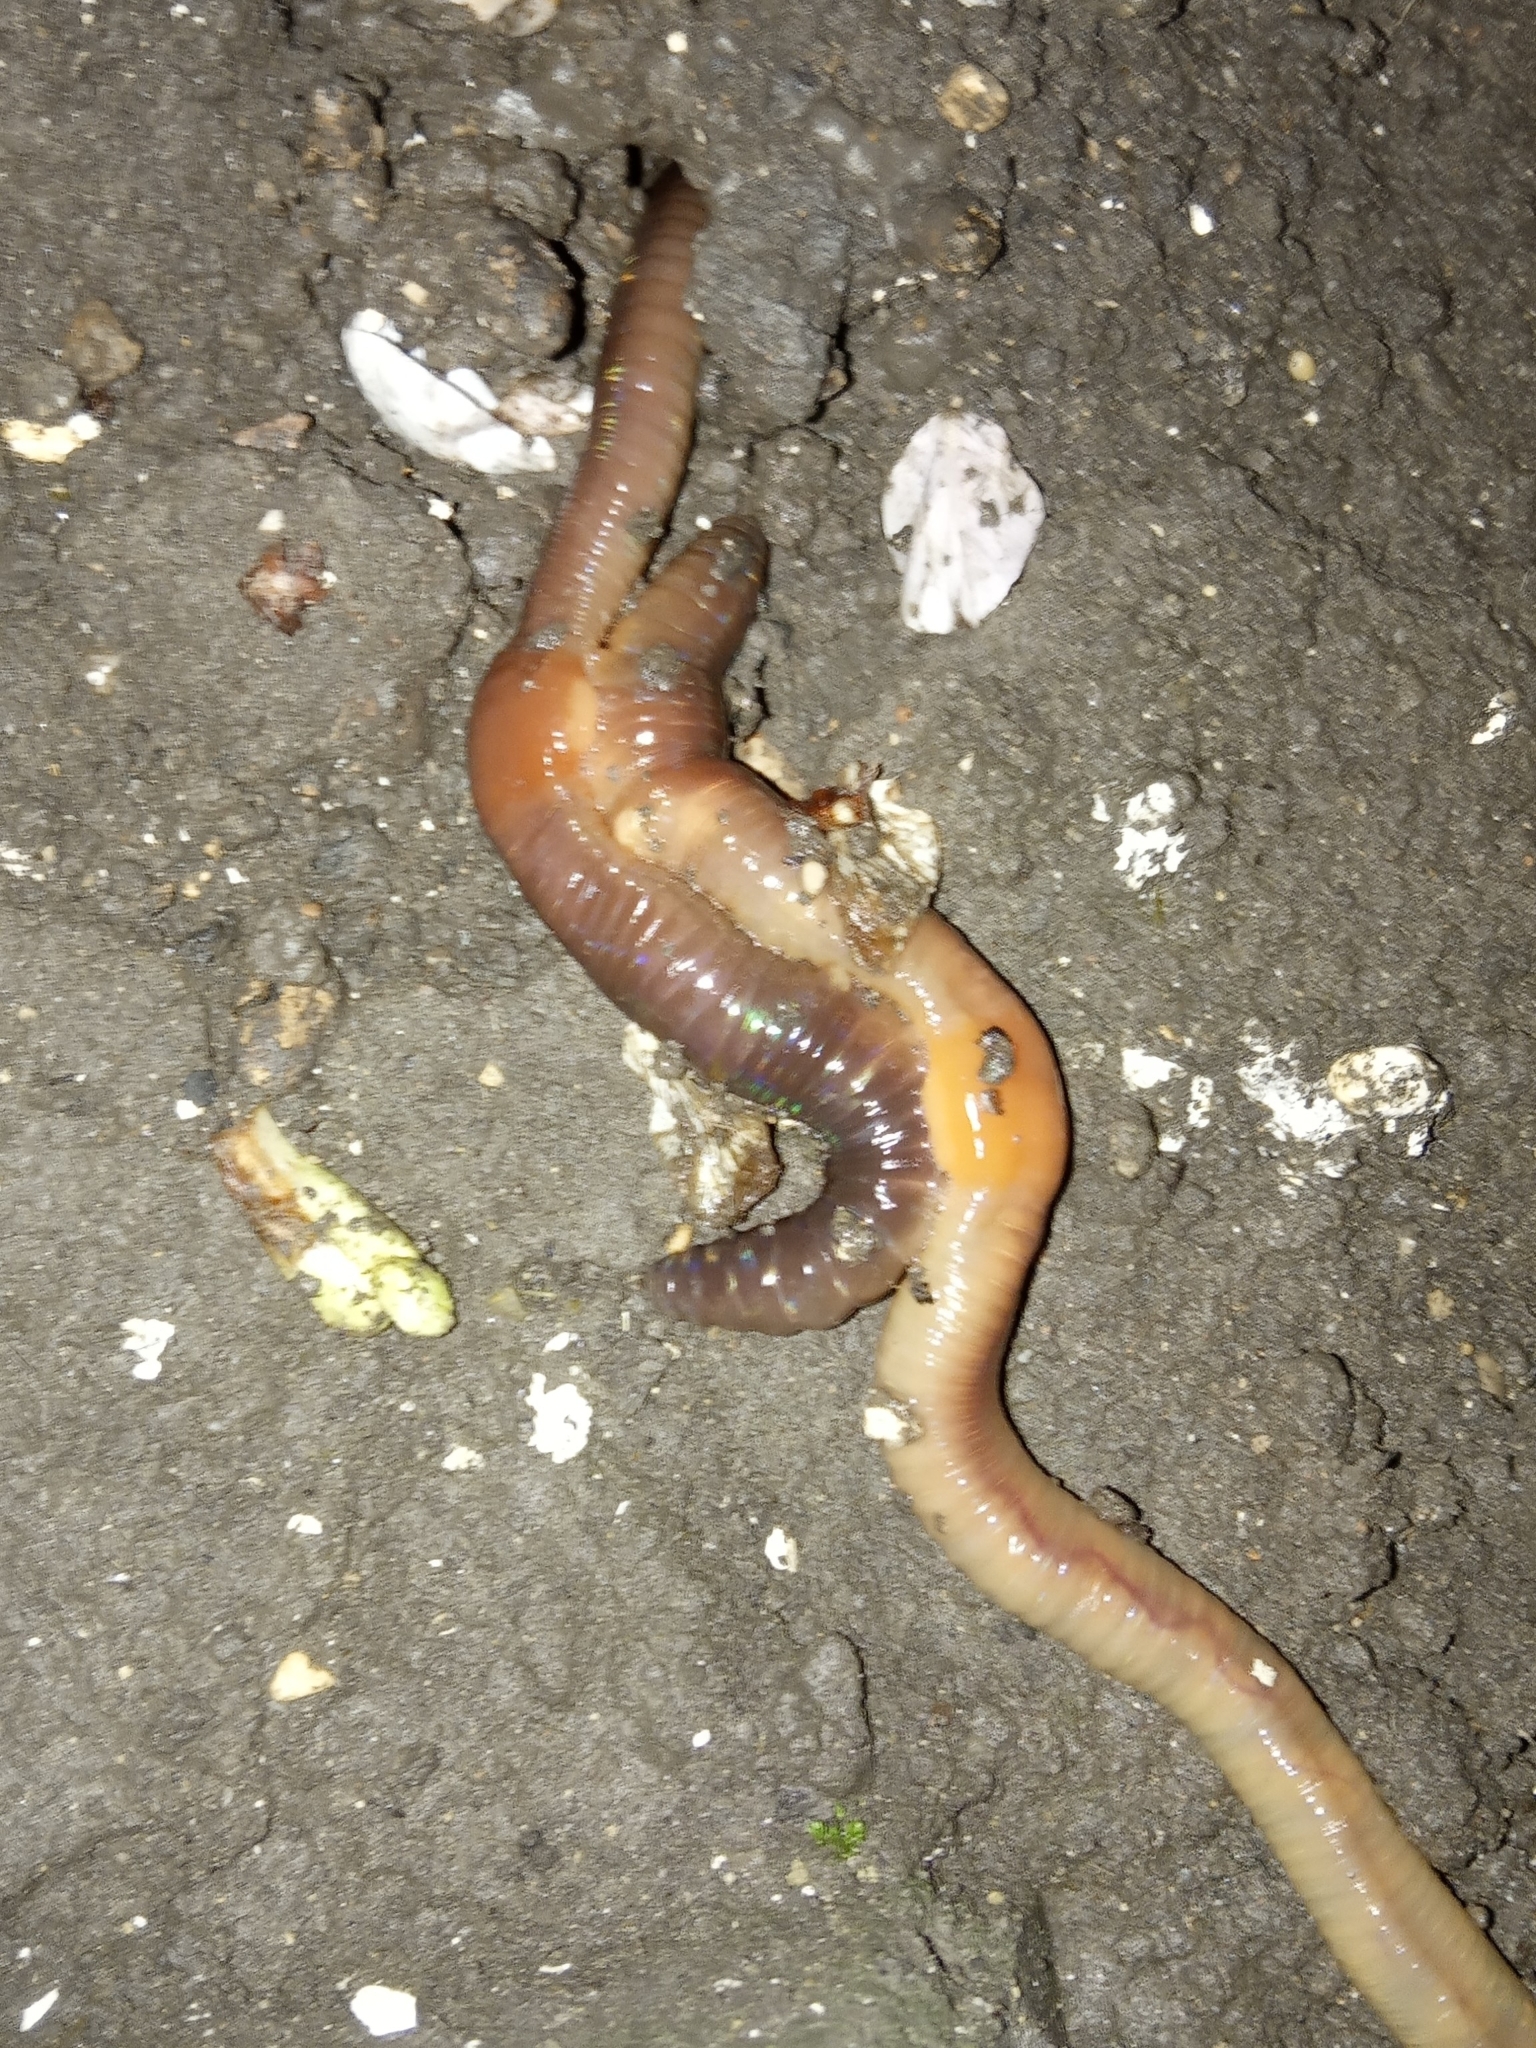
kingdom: Animalia
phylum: Annelida
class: Clitellata
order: Crassiclitellata
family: Lumbricidae
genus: Lumbricus
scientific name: Lumbricus terrestris
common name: Common earthworm
